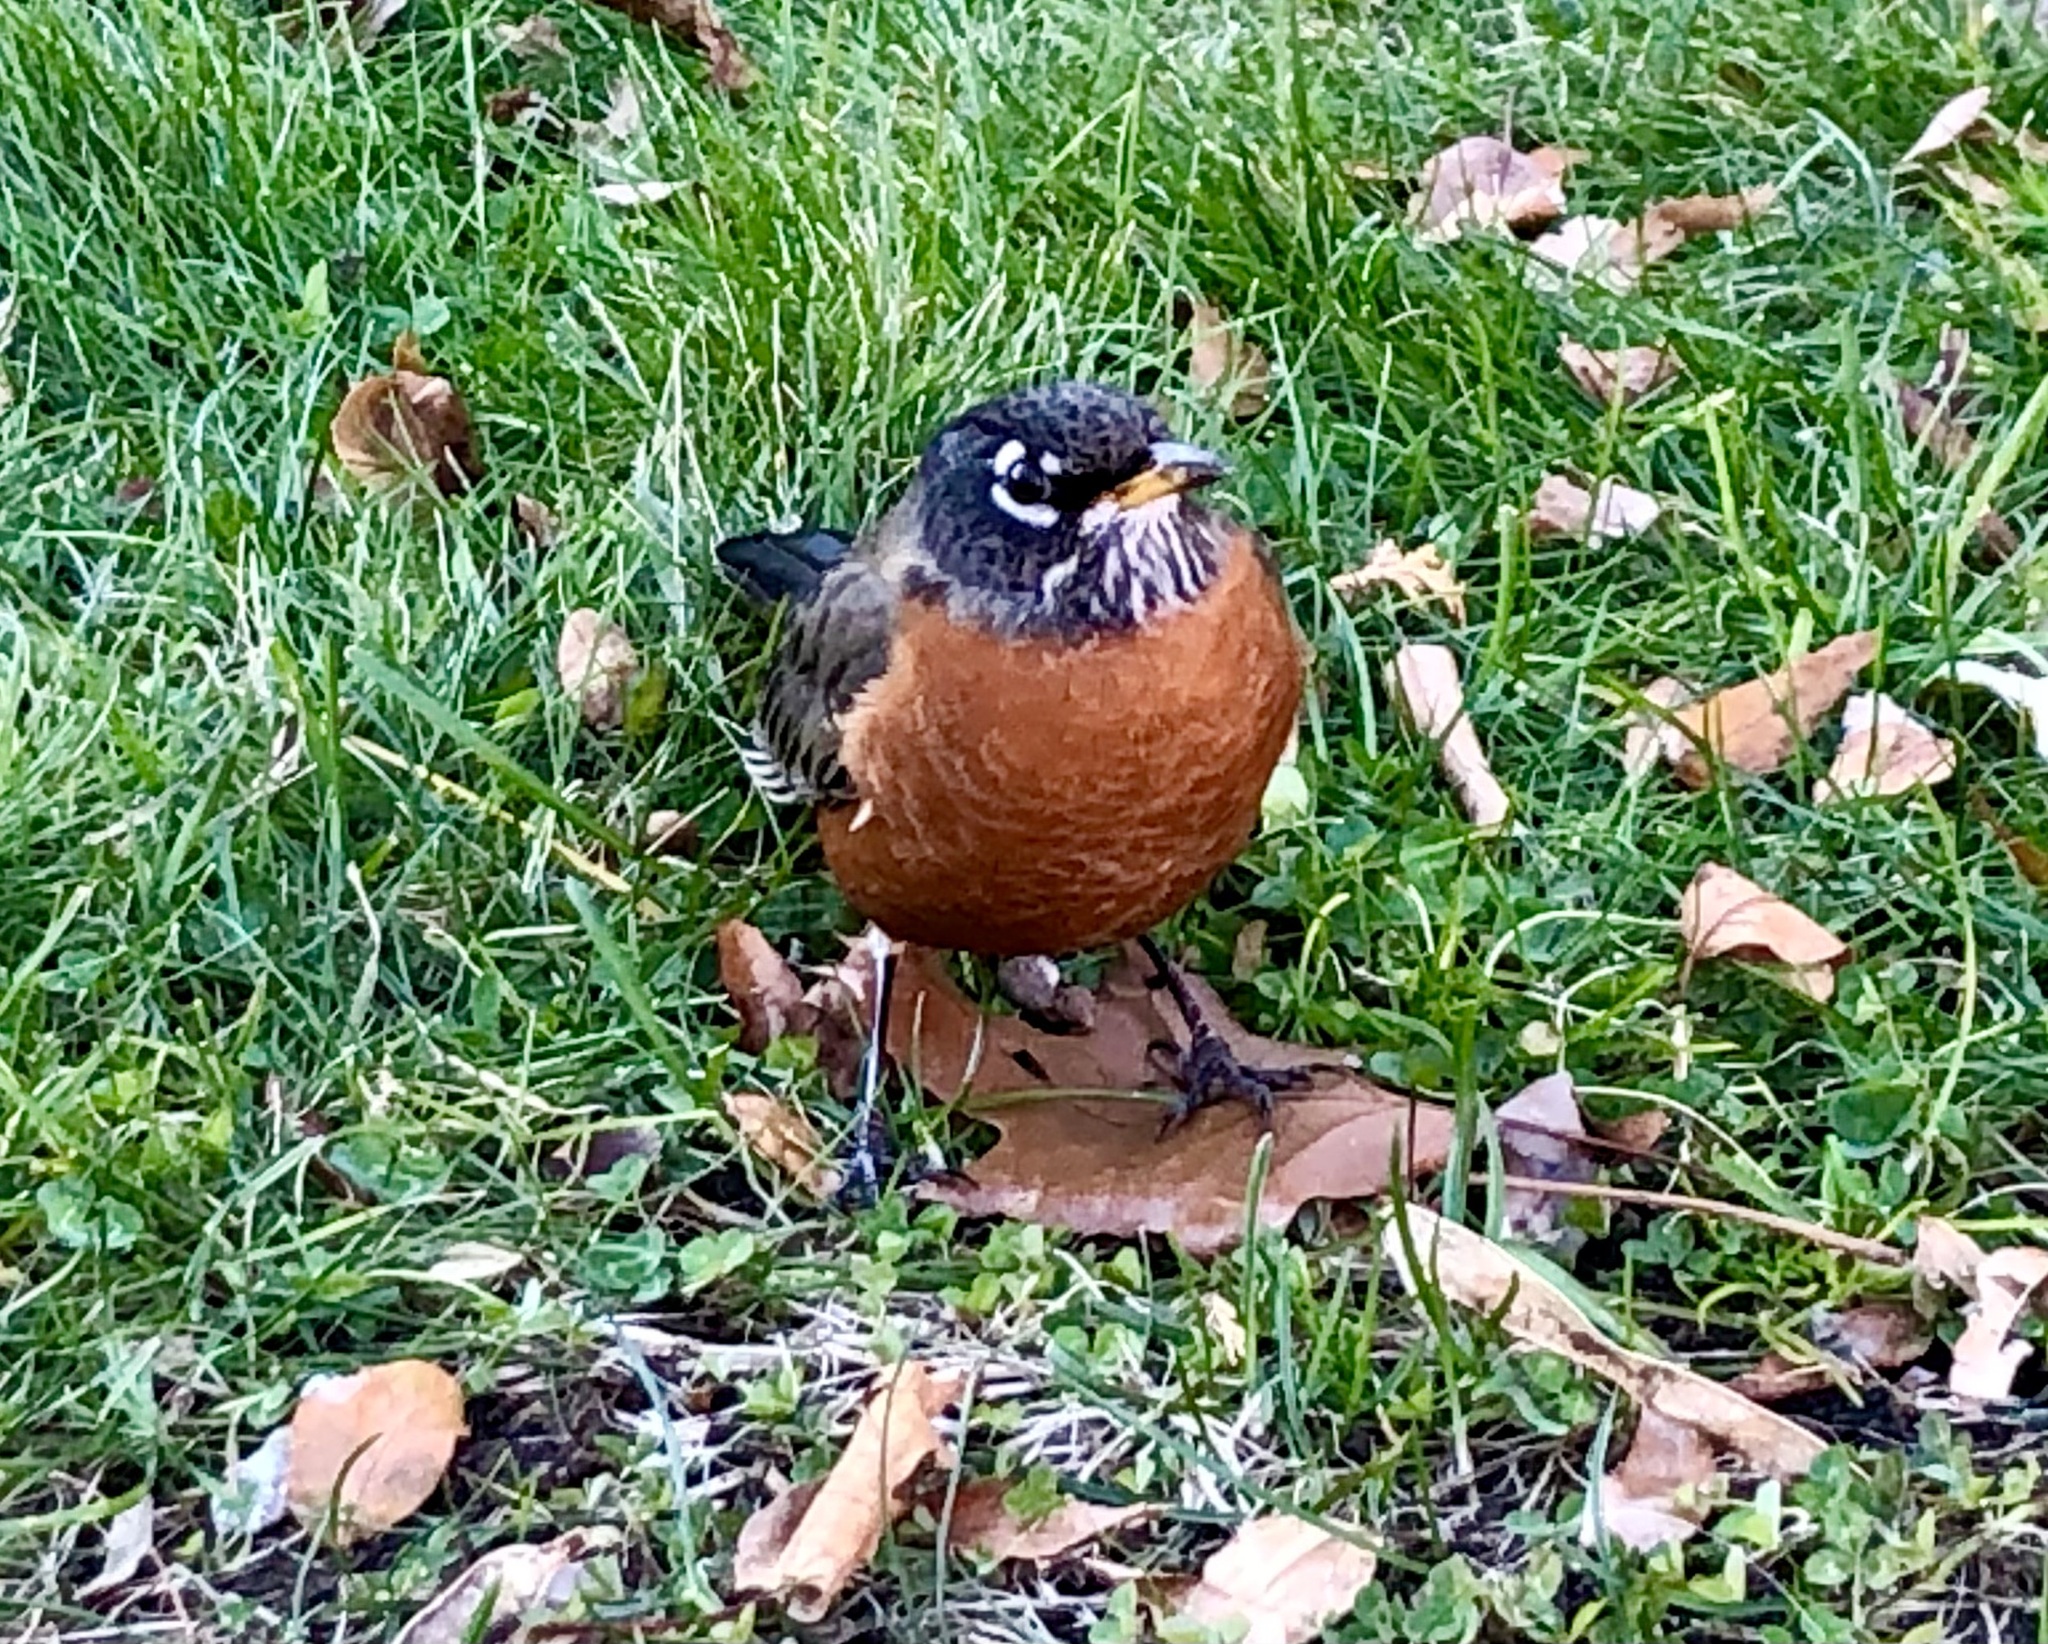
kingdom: Animalia
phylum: Chordata
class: Aves
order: Passeriformes
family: Turdidae
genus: Turdus
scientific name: Turdus migratorius
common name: American robin
